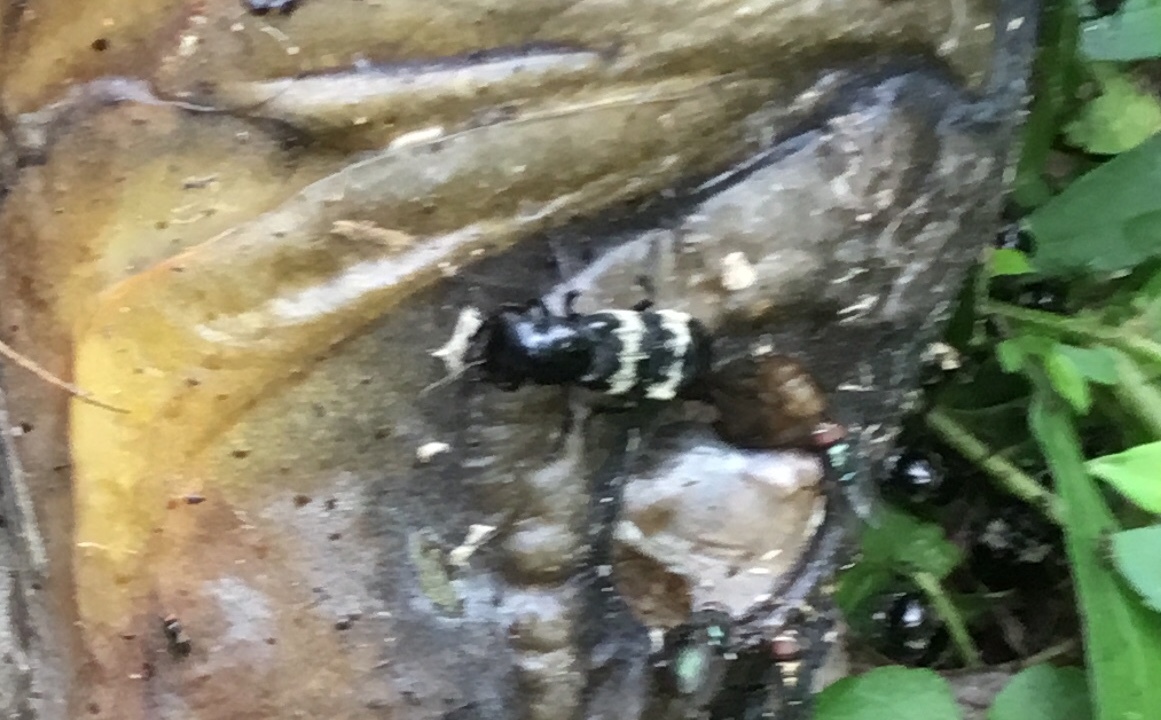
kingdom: Animalia
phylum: Arthropoda
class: Insecta
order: Coleoptera
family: Staphylinidae
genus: Creophilus
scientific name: Creophilus maxillosus
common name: Hairy rove beetle
